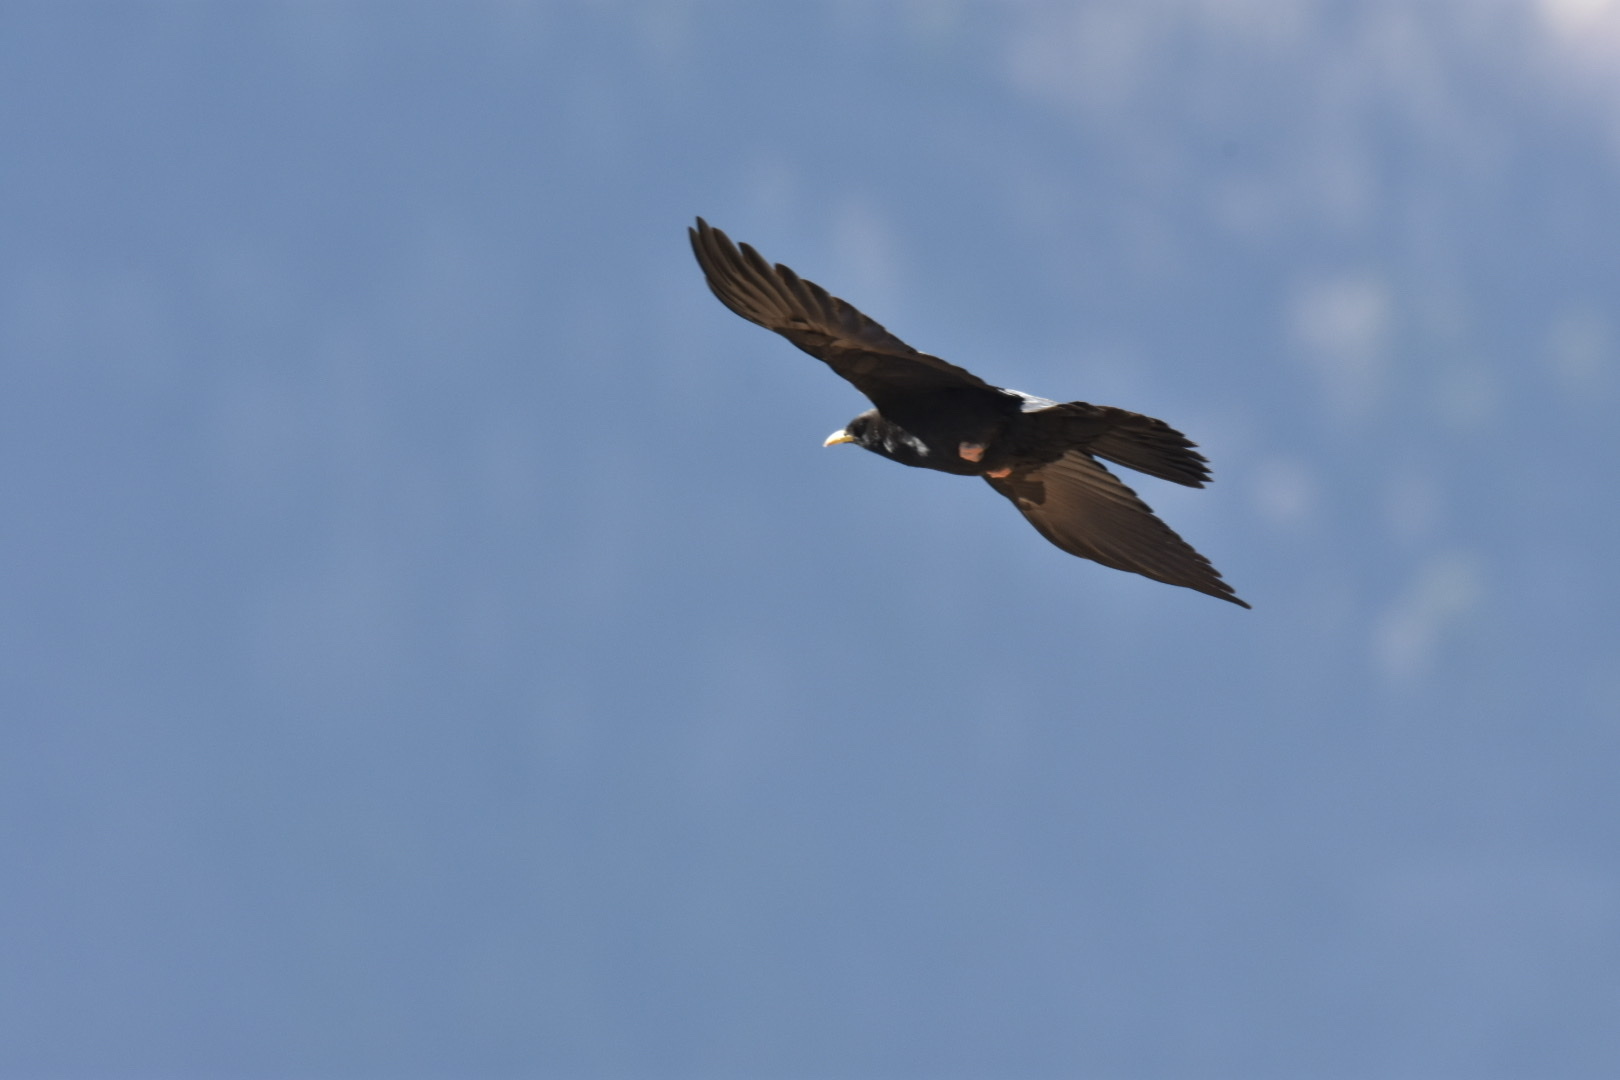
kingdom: Animalia
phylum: Chordata
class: Aves
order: Passeriformes
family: Corvidae
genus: Pyrrhocorax
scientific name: Pyrrhocorax graculus
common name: Alpine chough
